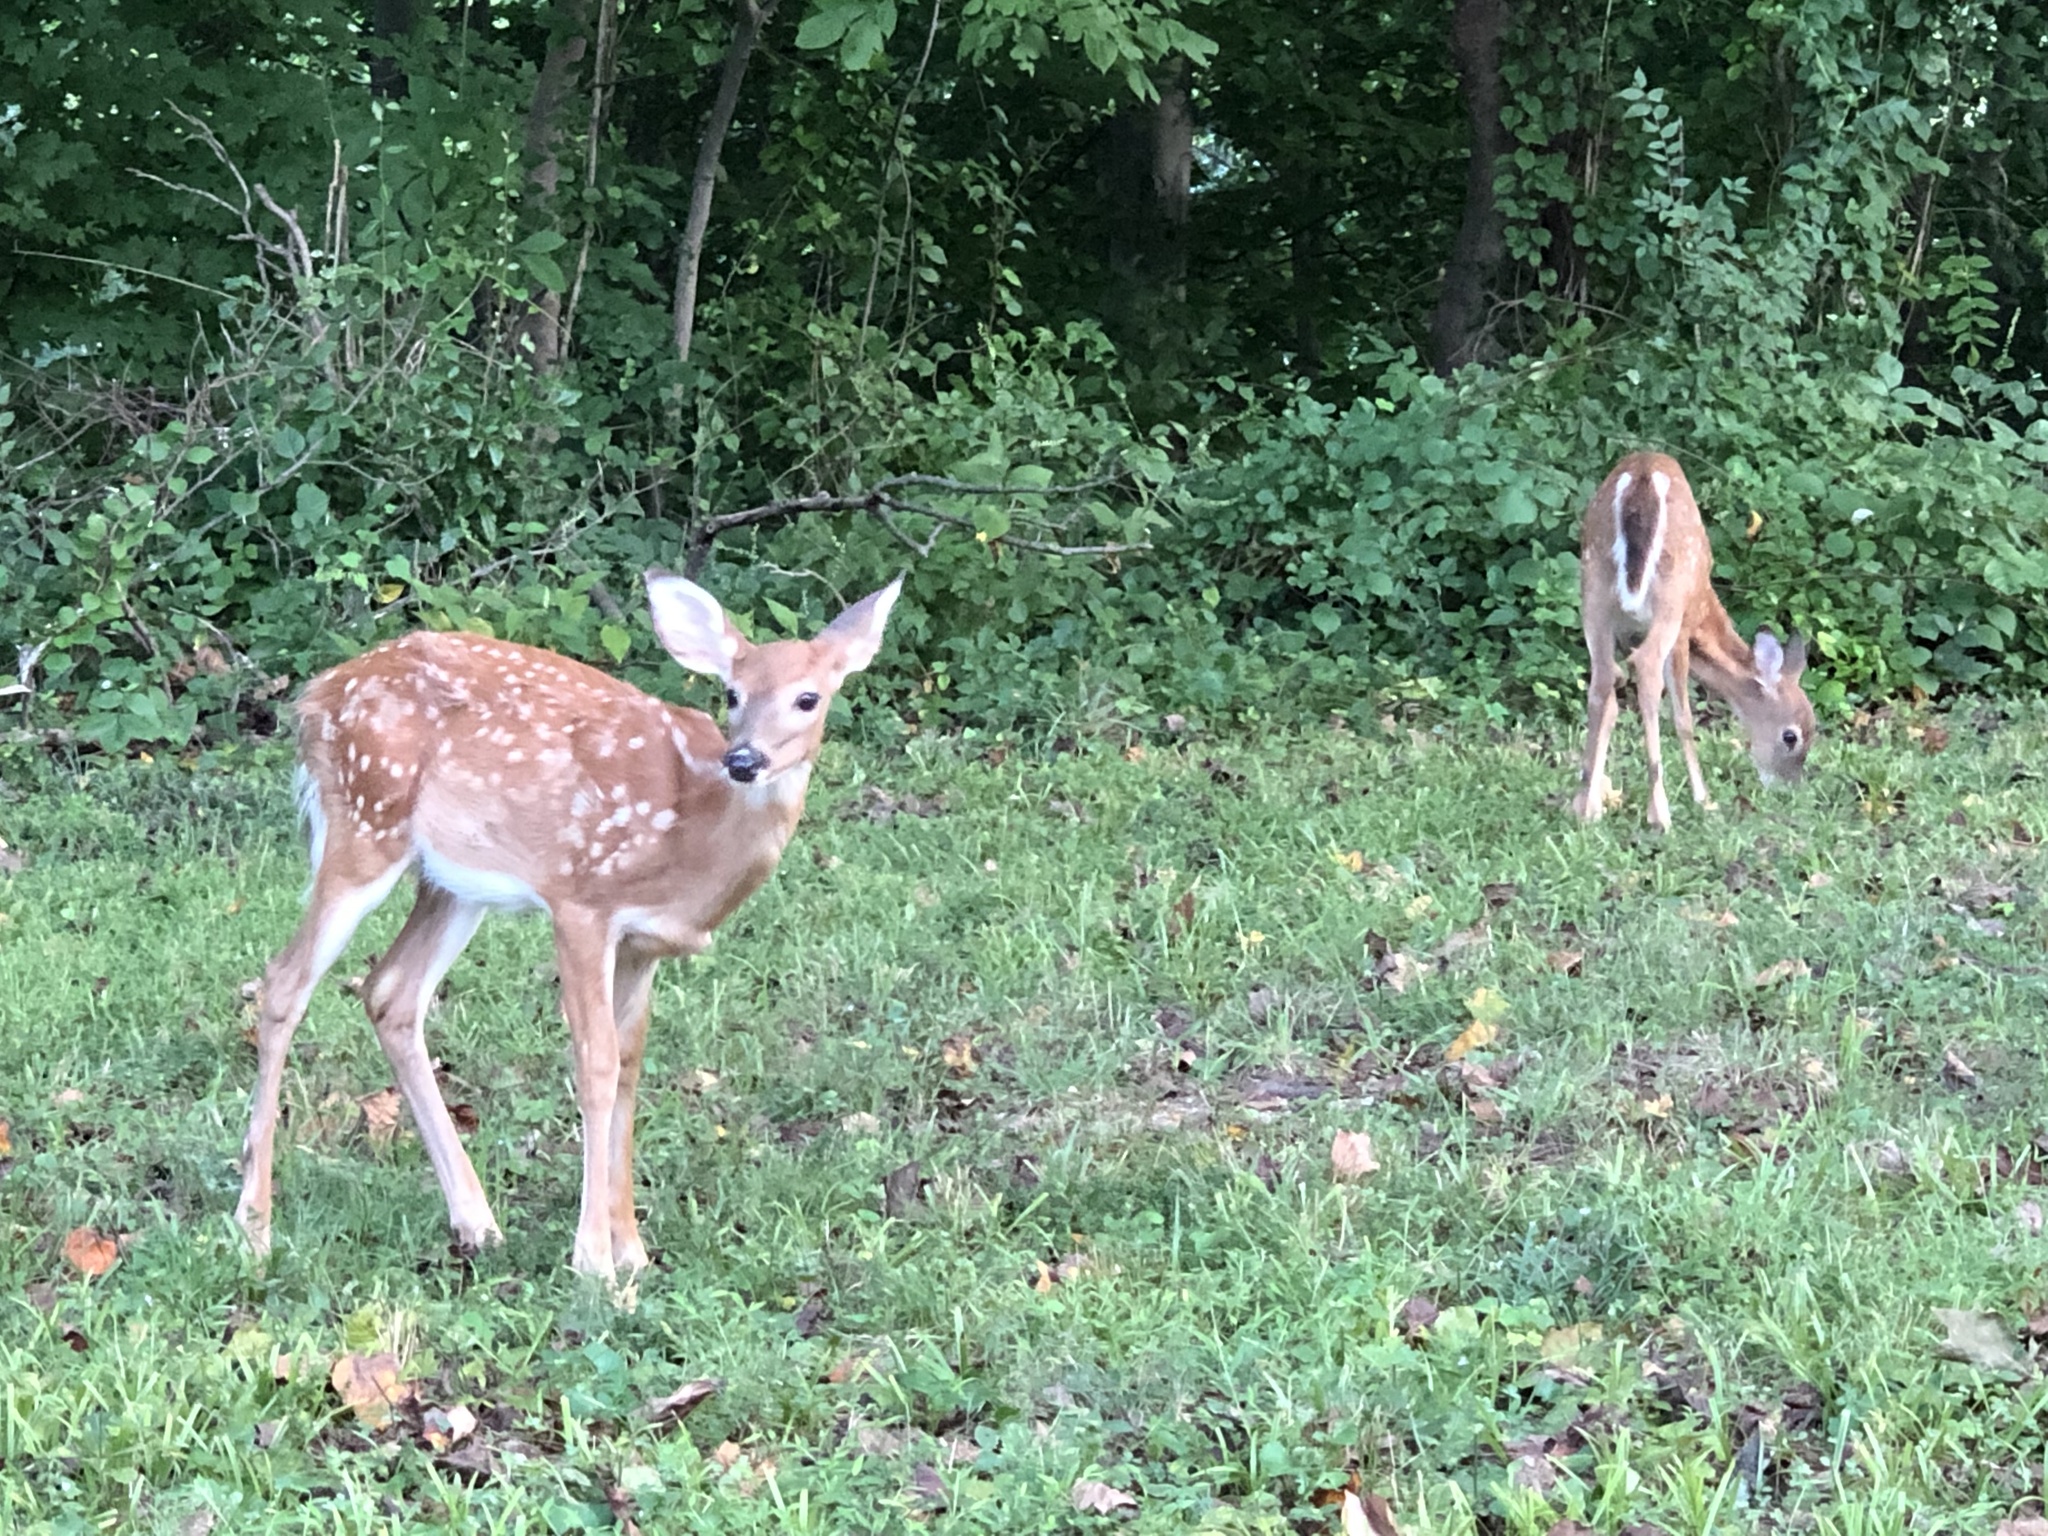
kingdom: Animalia
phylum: Chordata
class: Mammalia
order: Artiodactyla
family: Cervidae
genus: Odocoileus
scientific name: Odocoileus virginianus
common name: White-tailed deer
